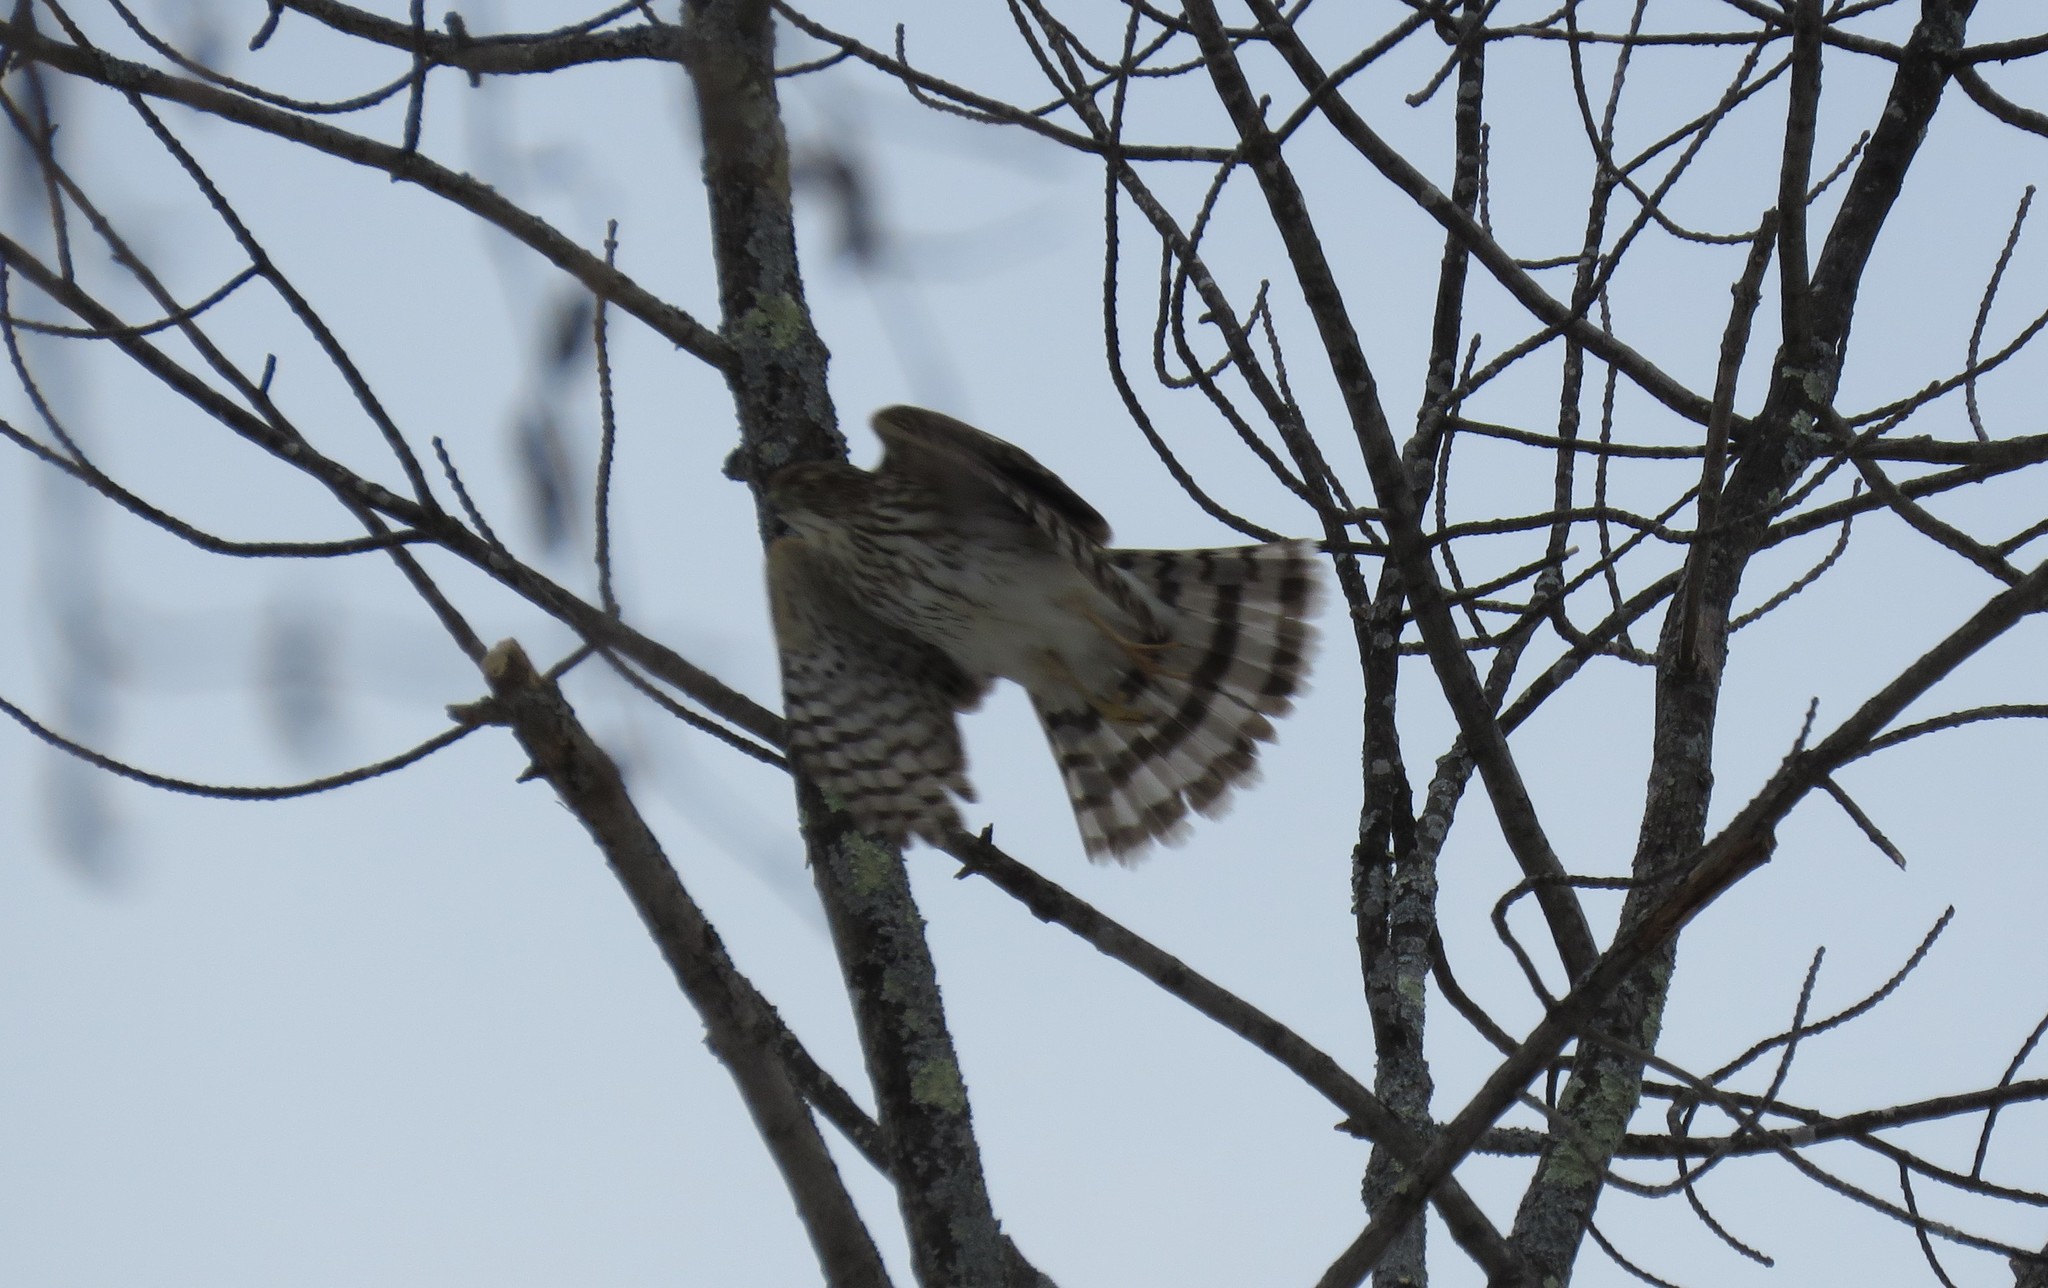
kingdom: Animalia
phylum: Chordata
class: Aves
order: Accipitriformes
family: Accipitridae
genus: Accipiter
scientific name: Accipiter cooperii
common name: Cooper's hawk
